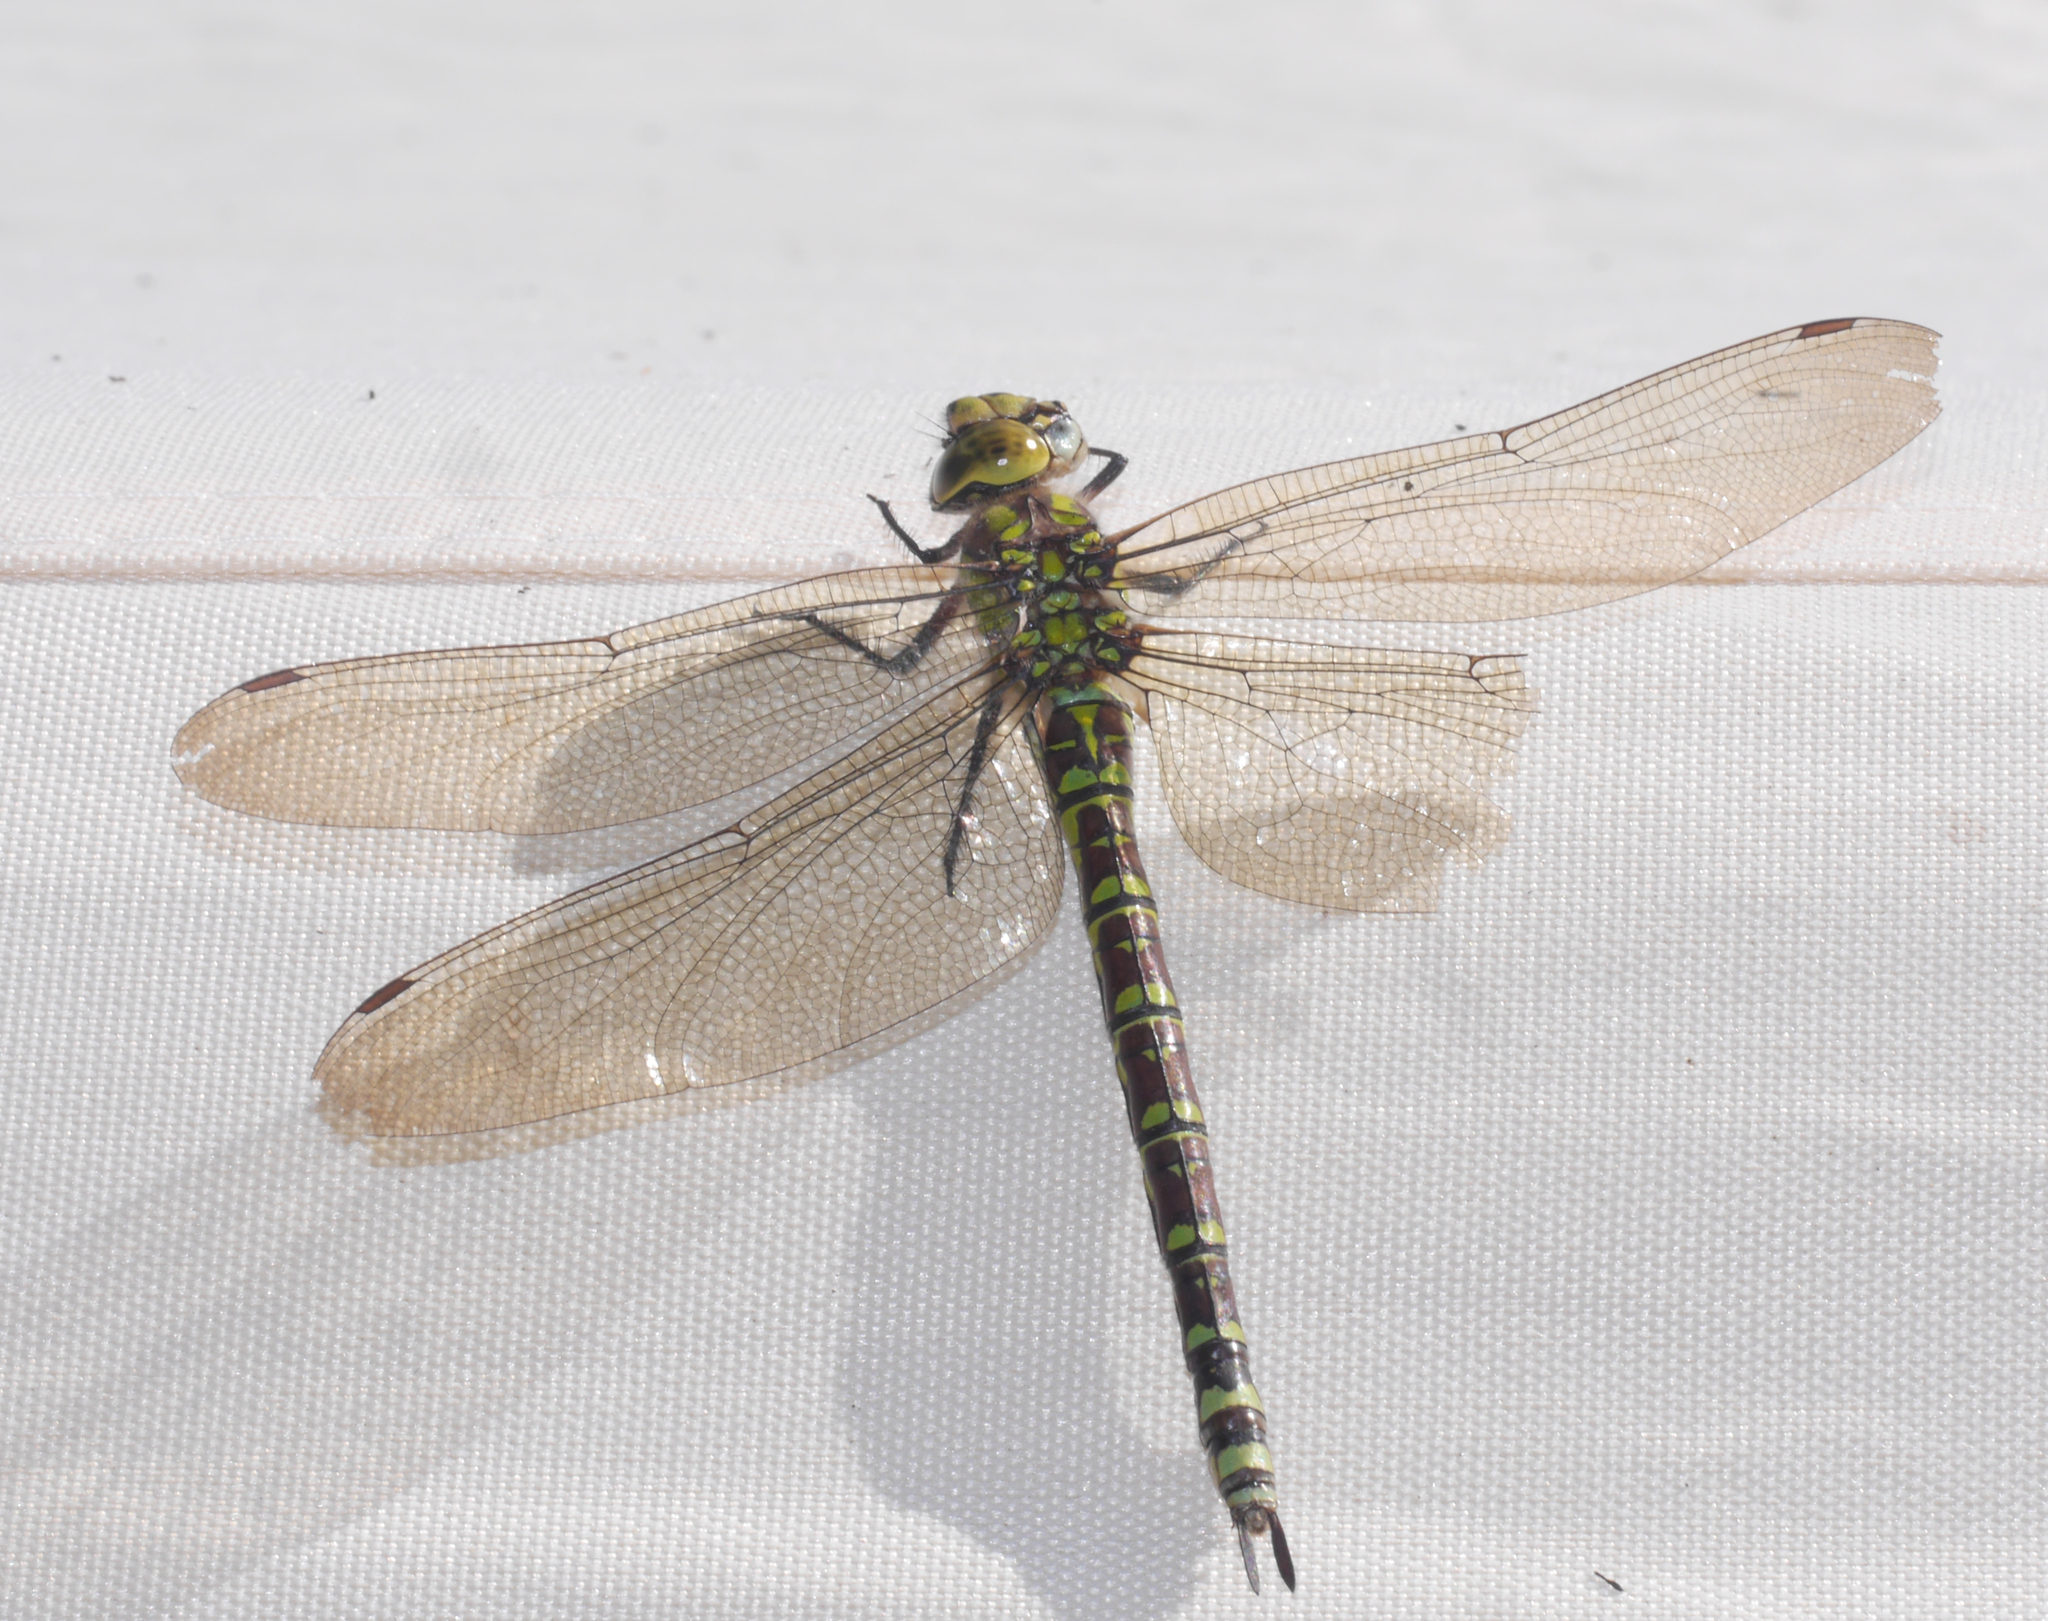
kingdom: Animalia
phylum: Arthropoda
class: Insecta
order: Odonata
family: Aeshnidae
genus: Aeshna
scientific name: Aeshna cyanea
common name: Southern hawker
